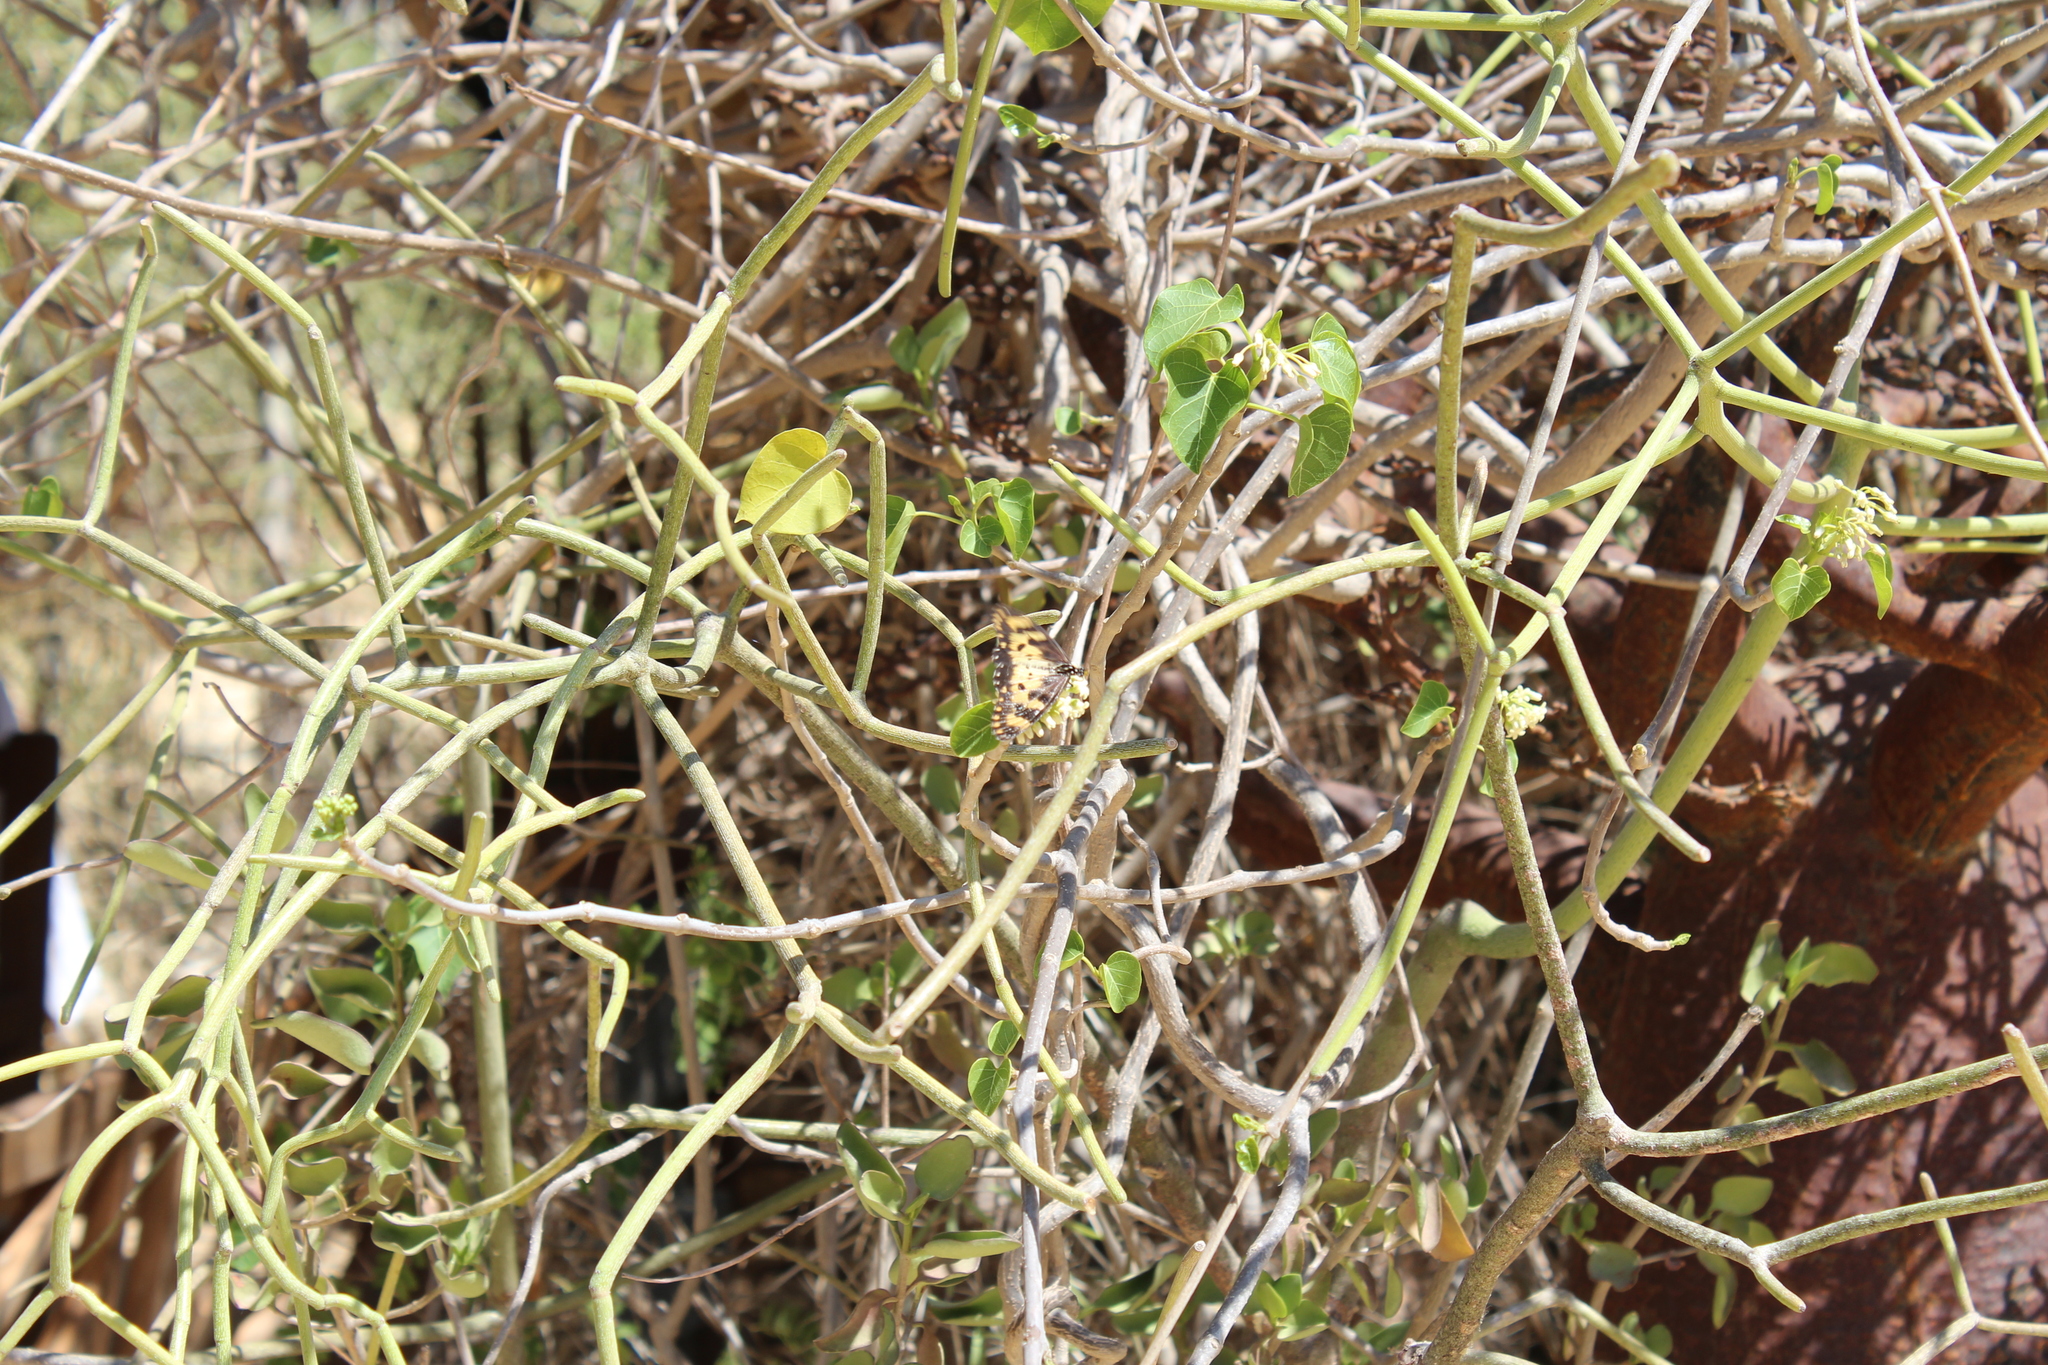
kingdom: Animalia
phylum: Arthropoda
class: Insecta
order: Lepidoptera
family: Nymphalidae
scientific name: Nymphalidae
